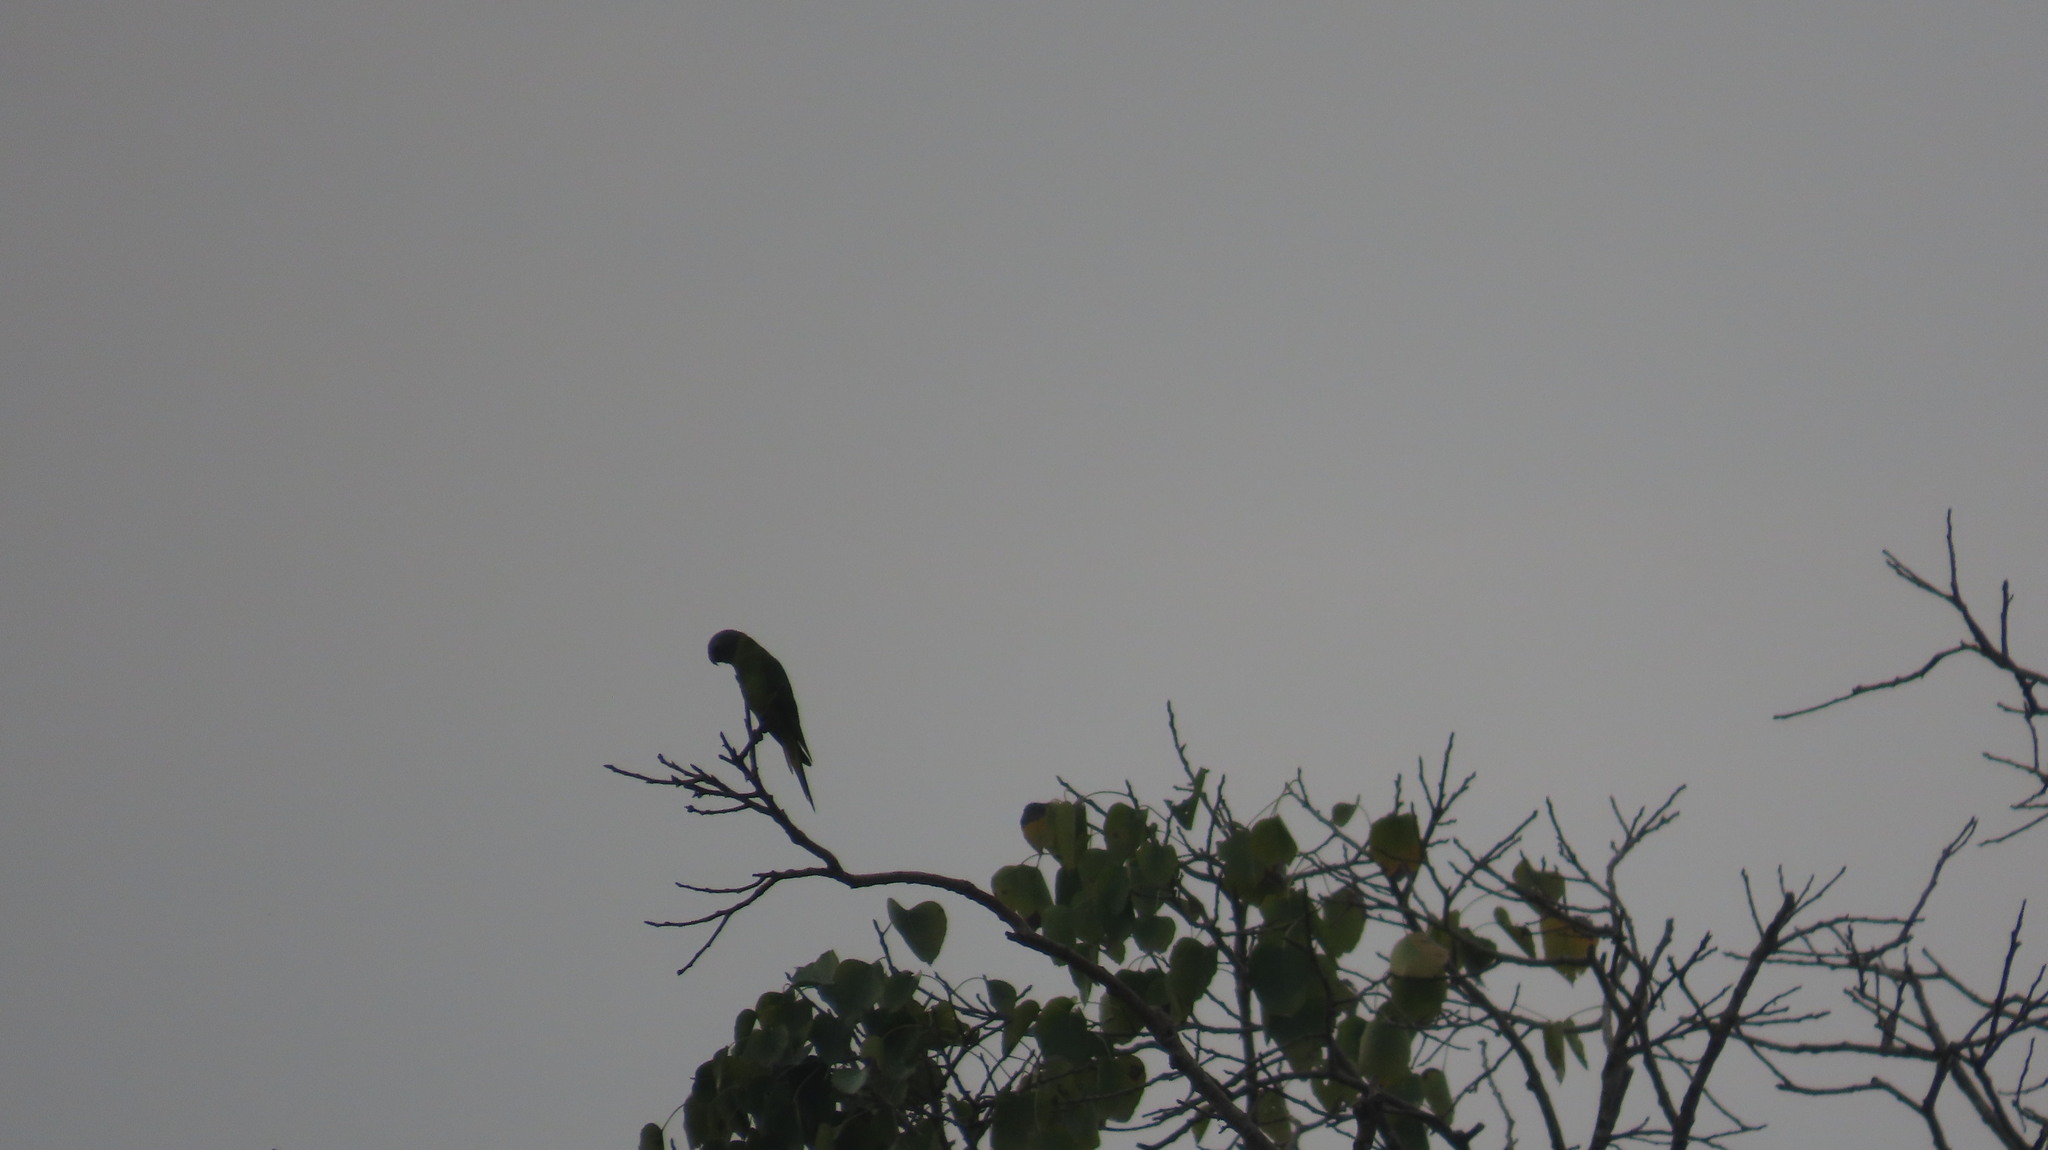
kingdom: Animalia
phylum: Chordata
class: Aves
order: Psittaciformes
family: Psittacidae
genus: Psittacula
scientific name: Psittacula cyanocephala
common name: Plum-headed parakeet
